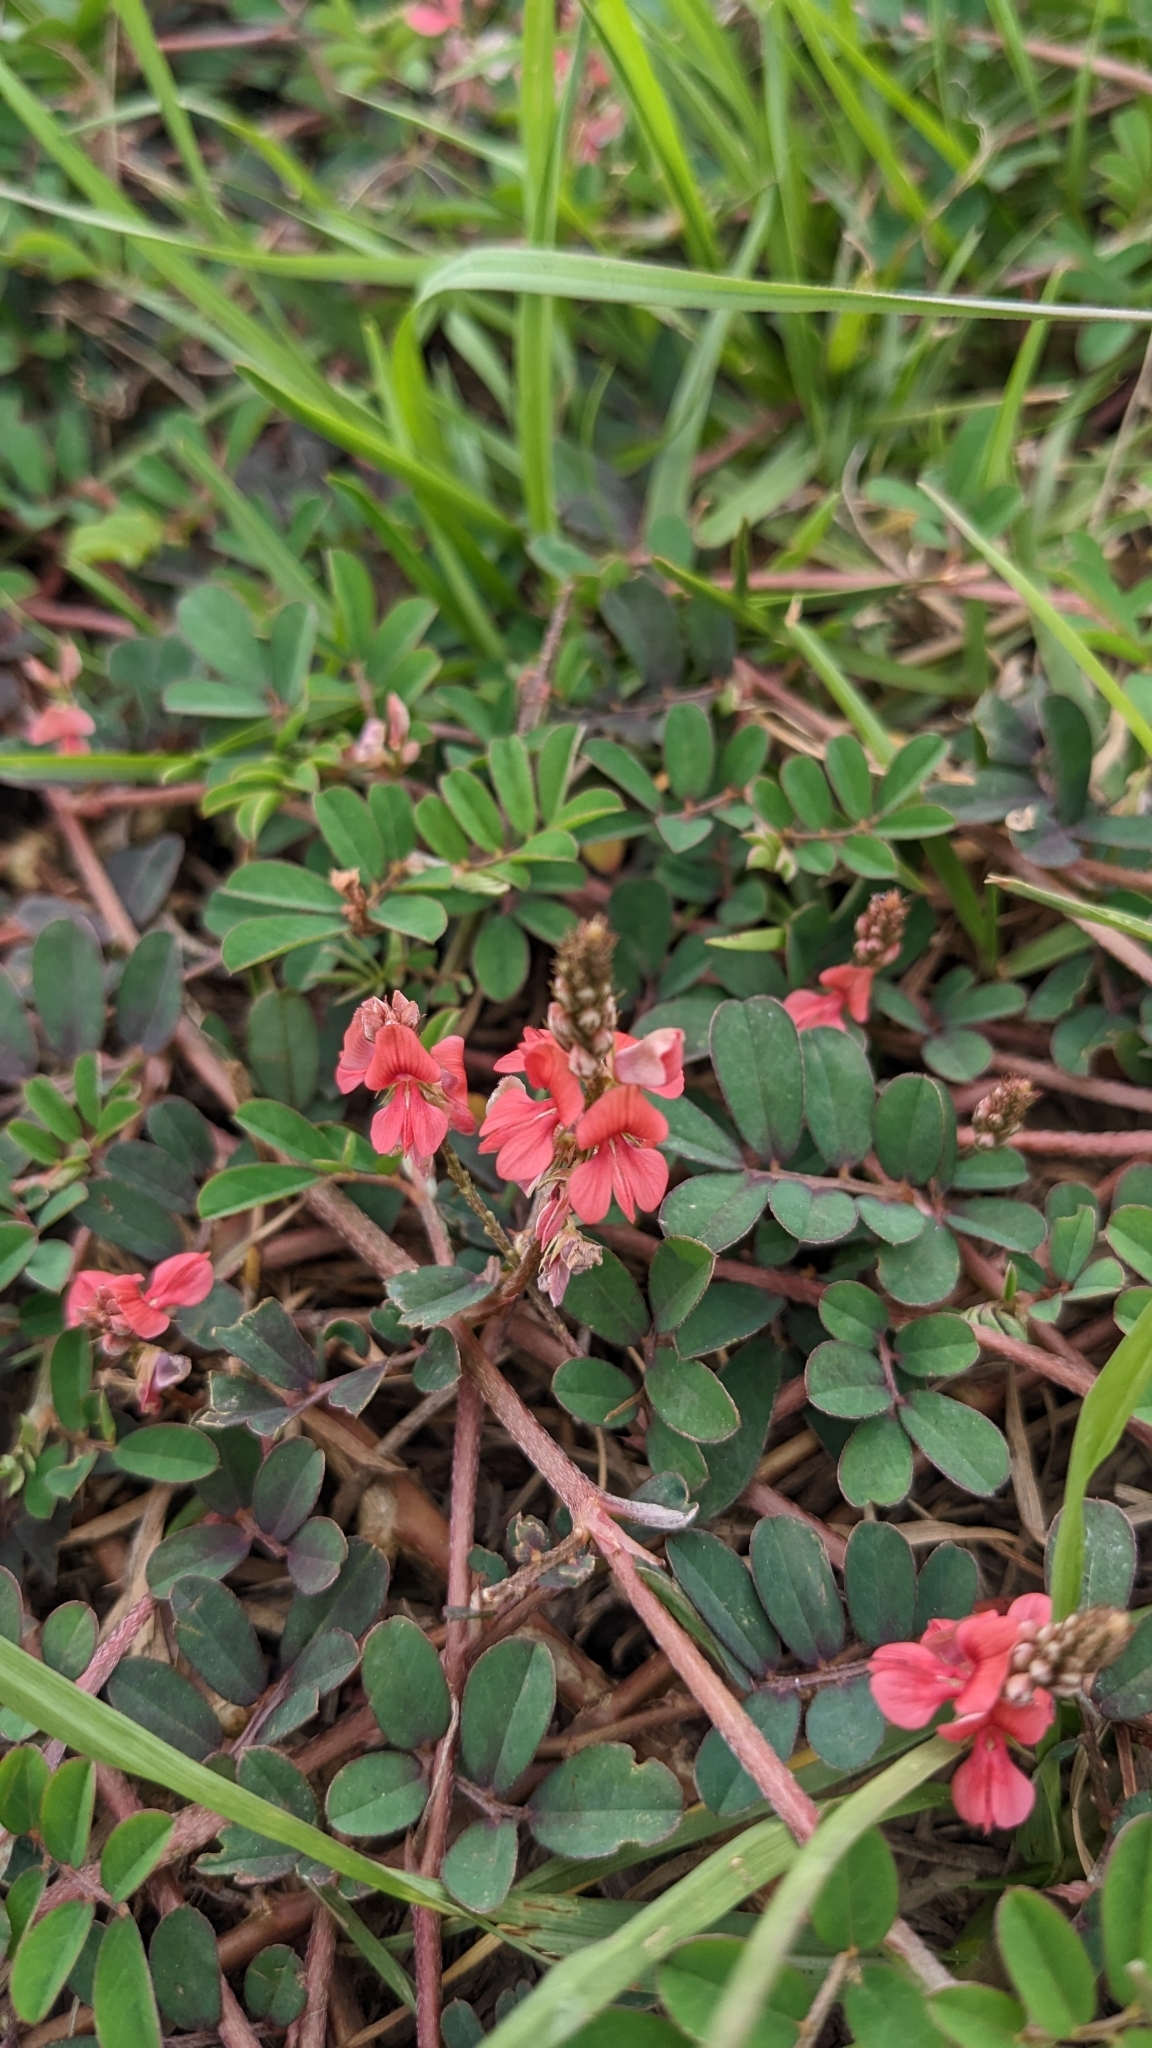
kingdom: Plantae
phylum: Tracheophyta
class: Magnoliopsida
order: Fabales
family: Fabaceae
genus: Indigofera
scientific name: Indigofera hendecaphylla
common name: Trailing indigo
